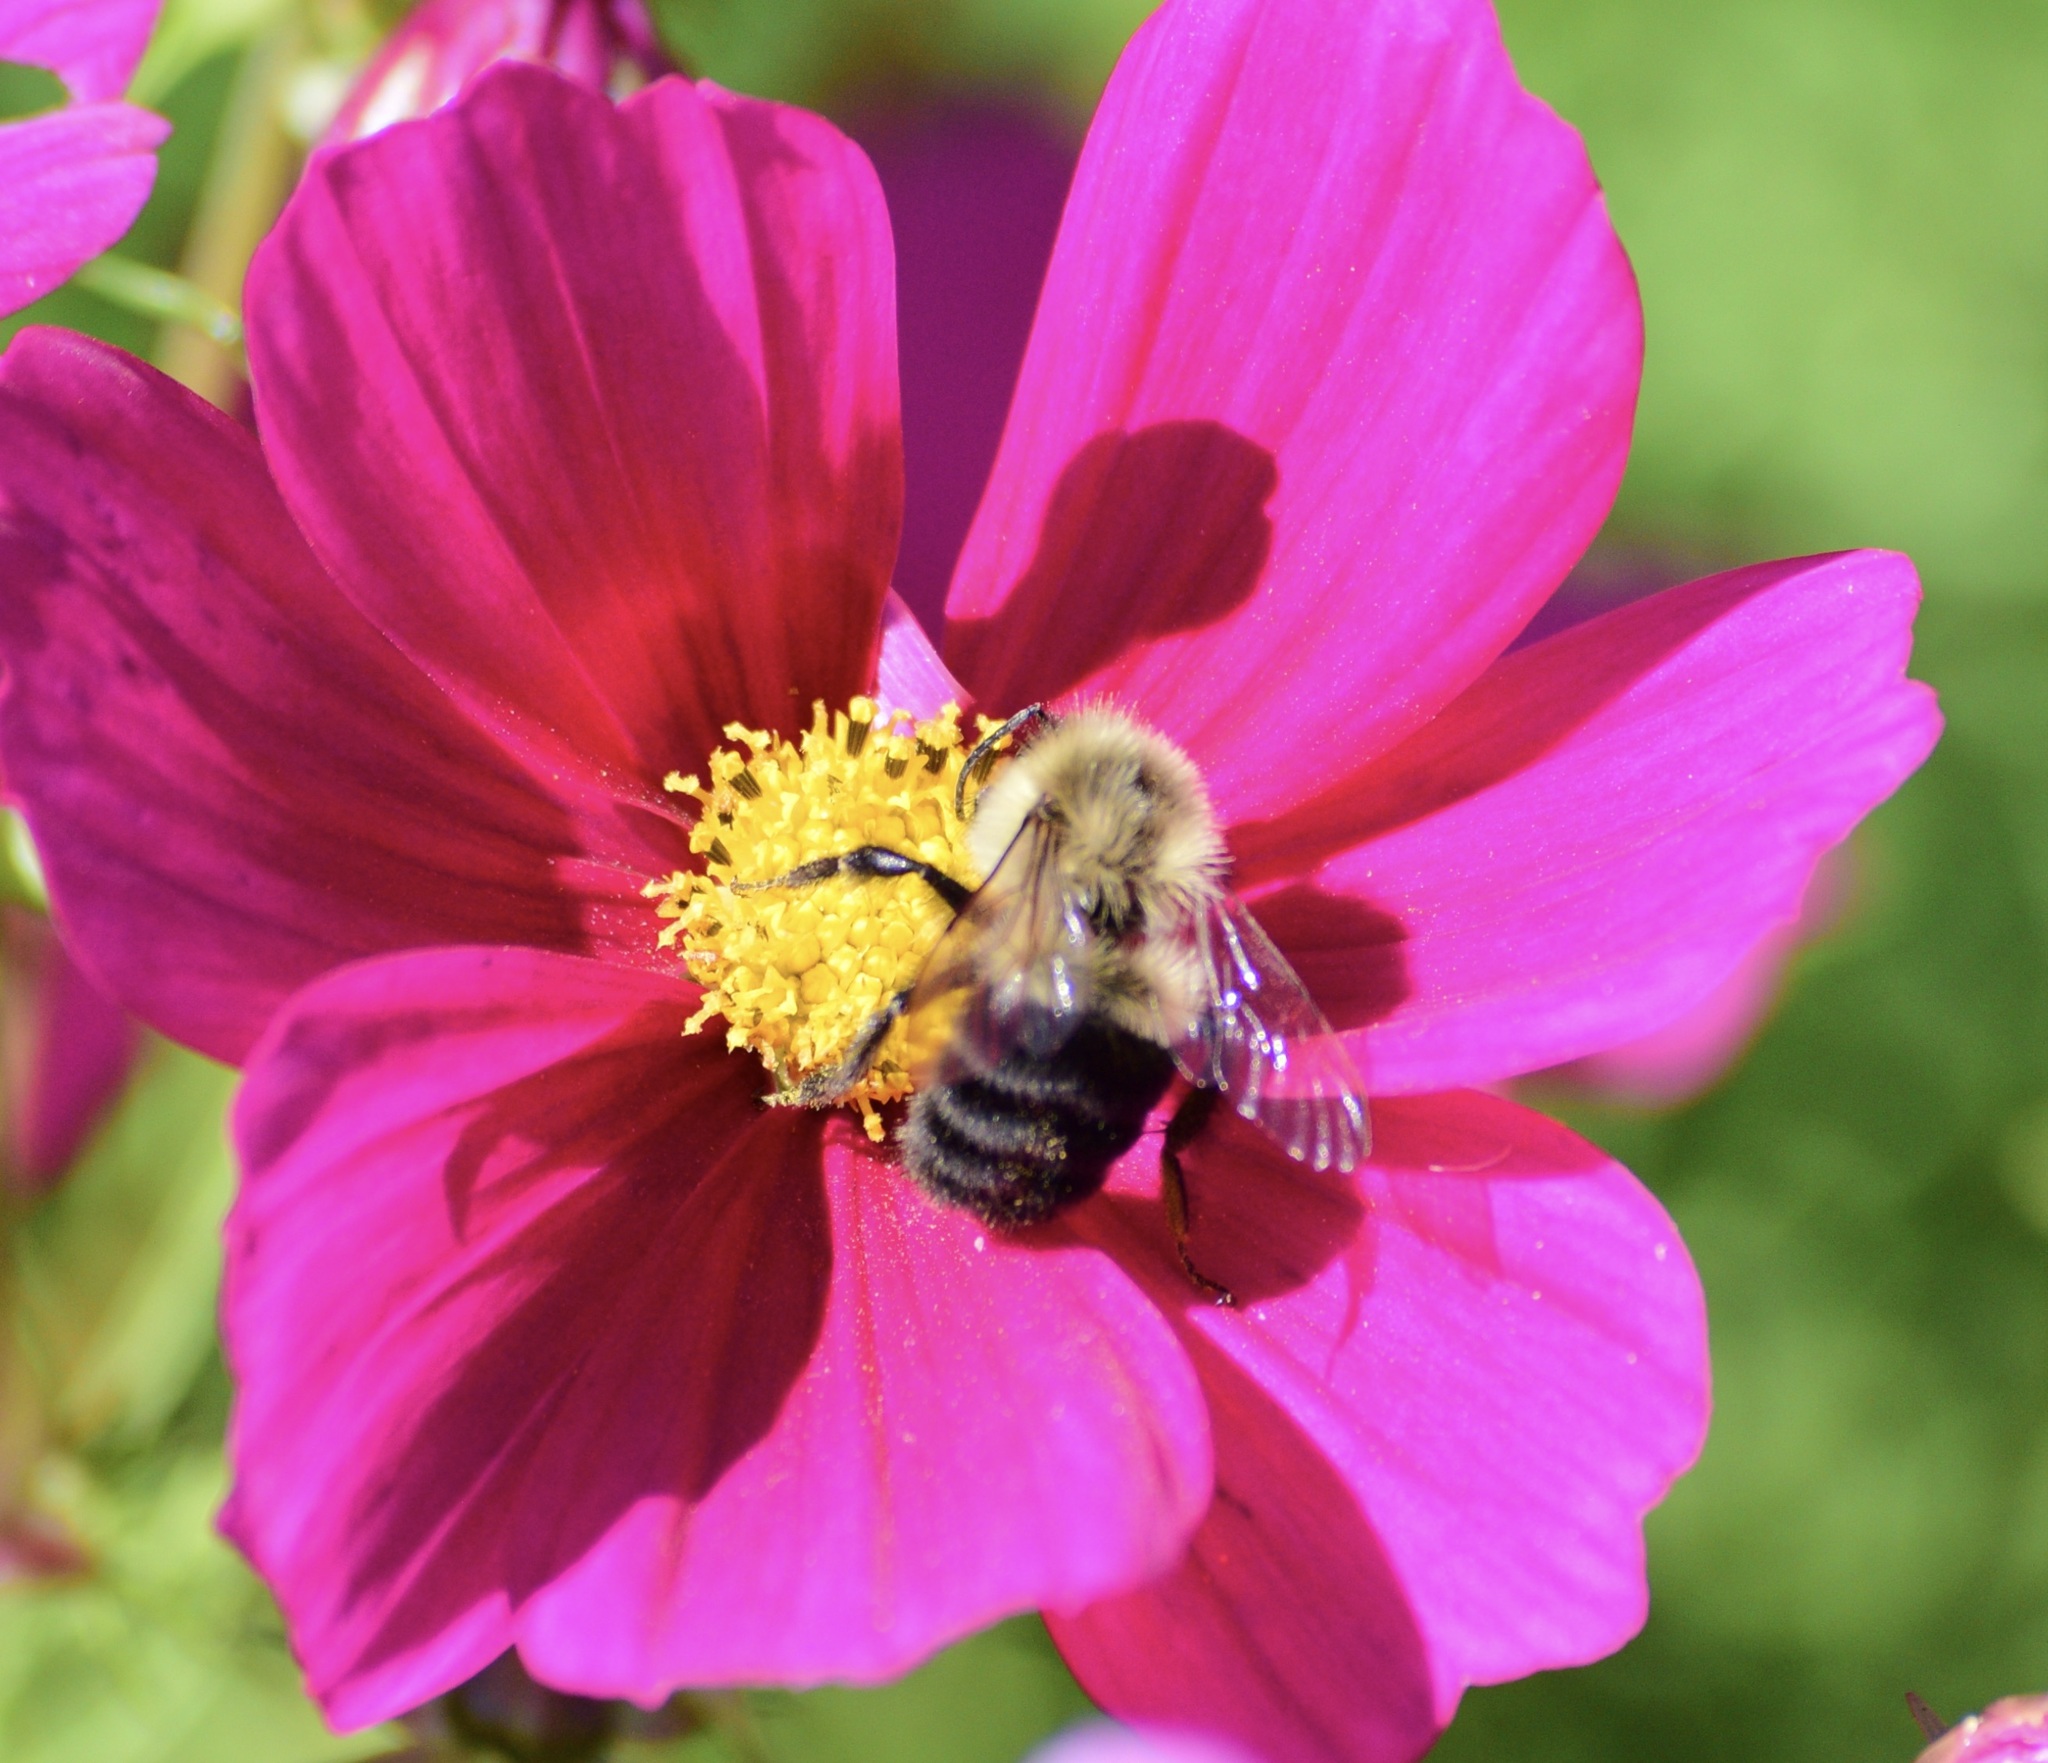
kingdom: Animalia
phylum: Arthropoda
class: Insecta
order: Hymenoptera
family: Apidae
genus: Bombus
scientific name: Bombus impatiens
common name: Common eastern bumble bee
